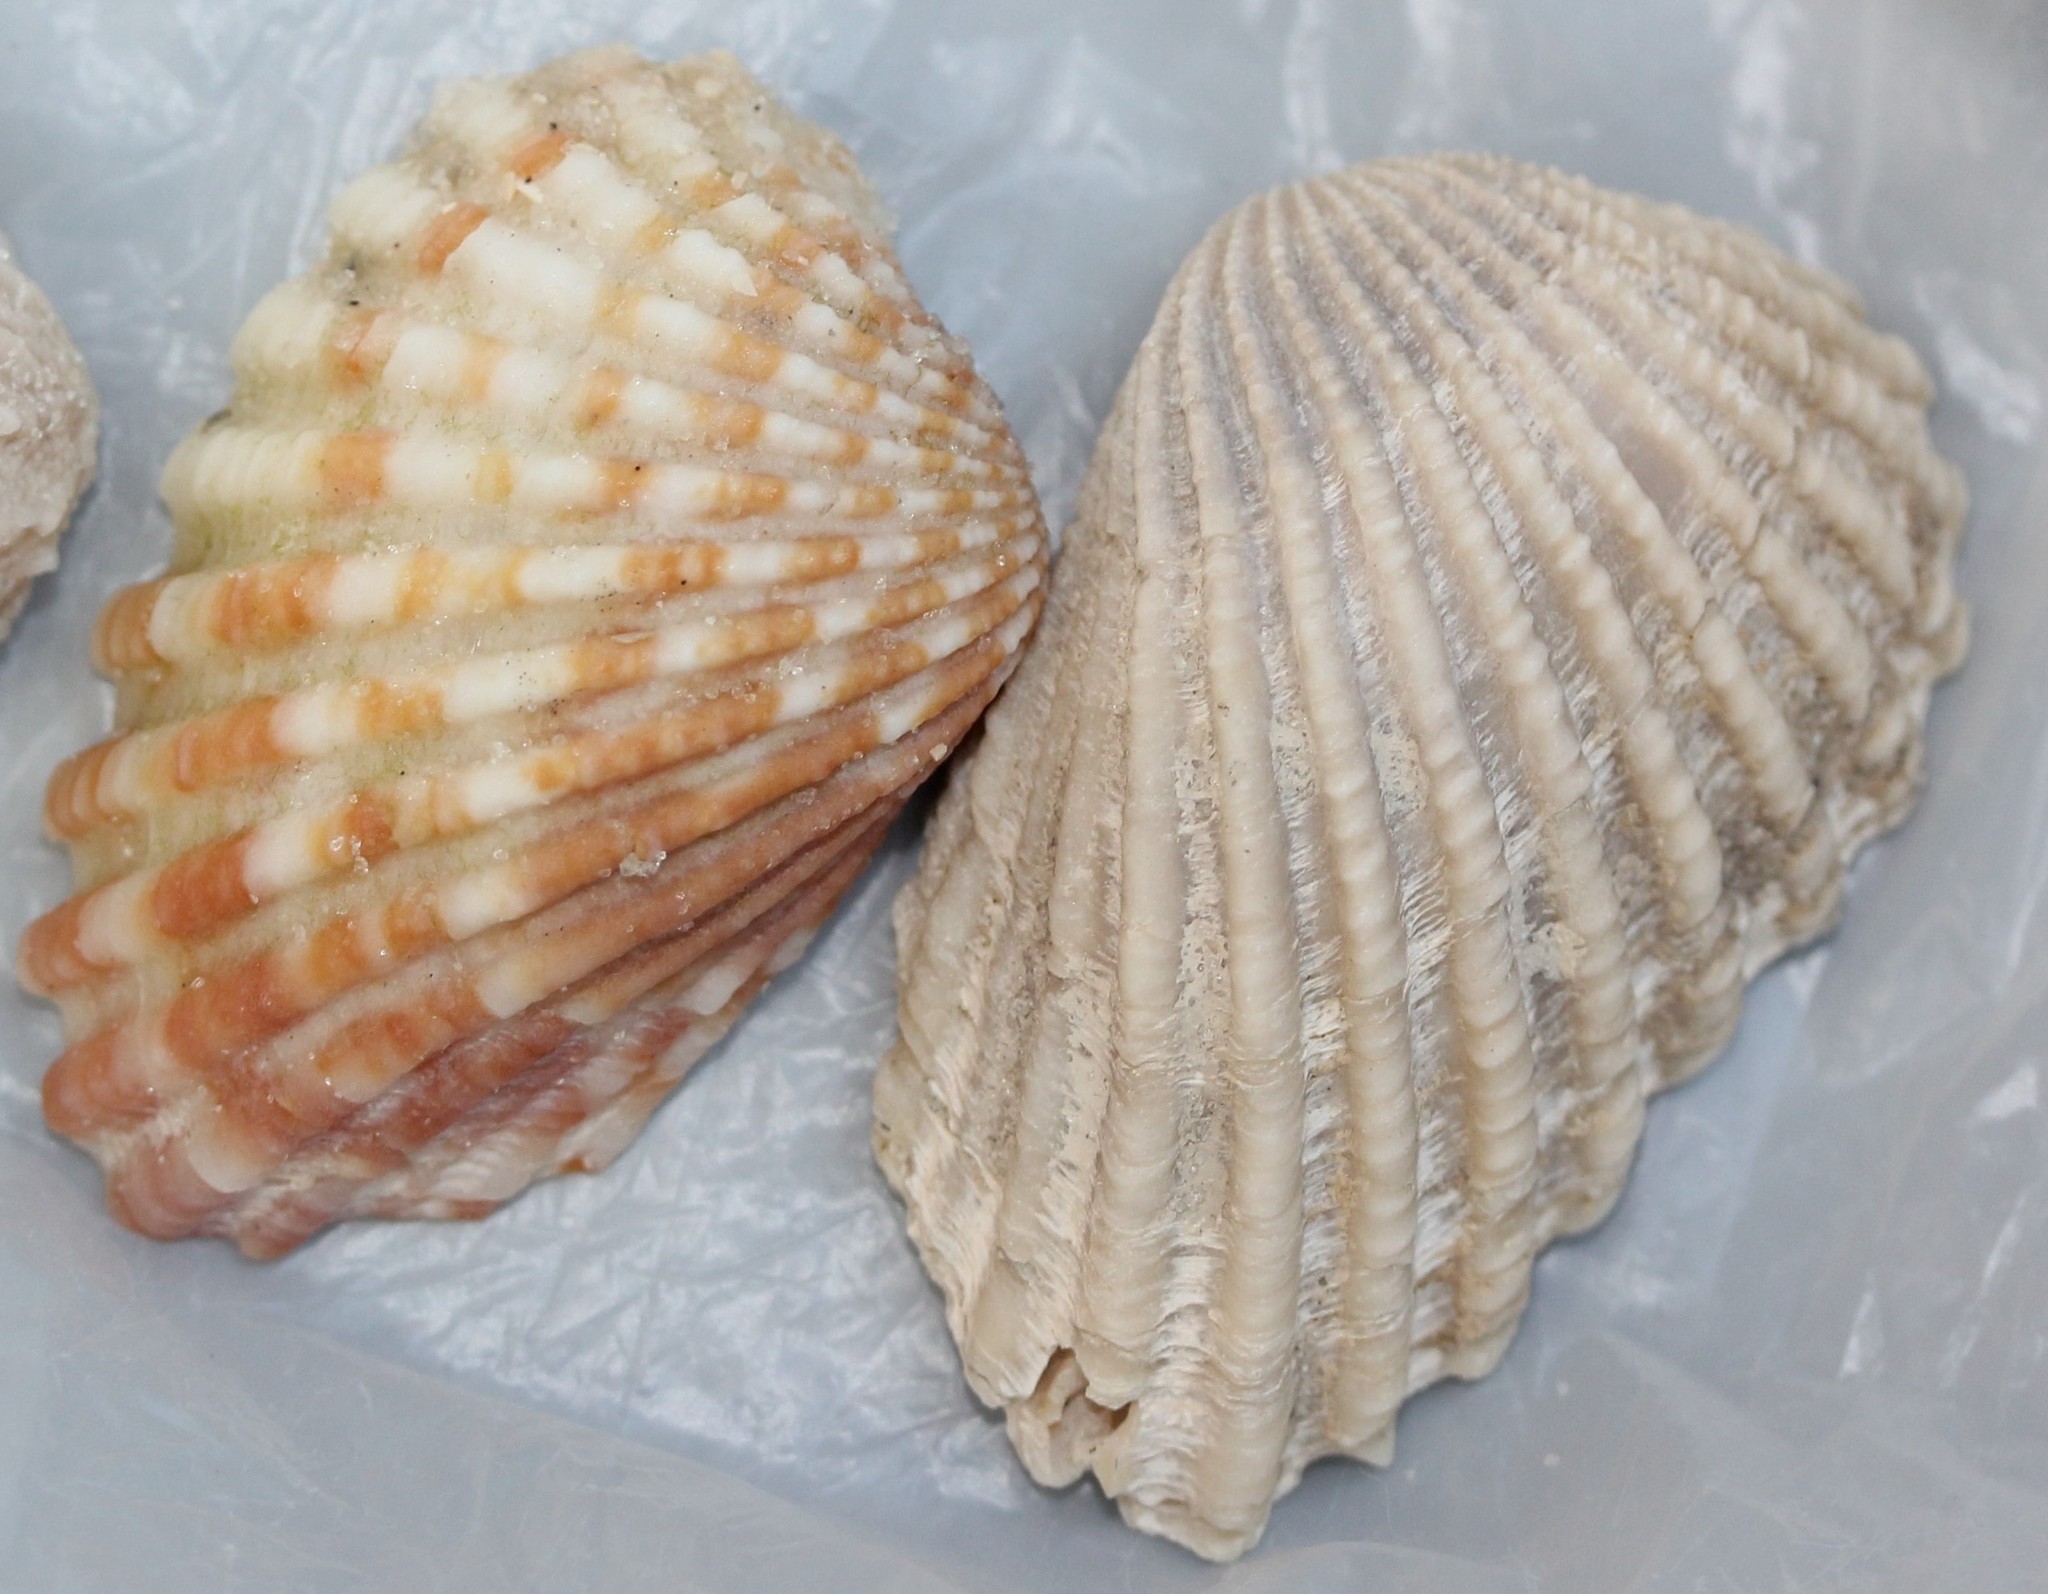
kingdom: Animalia
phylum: Mollusca
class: Bivalvia
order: Carditida
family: Carditidae
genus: Cardites
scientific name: Cardites floridanus
